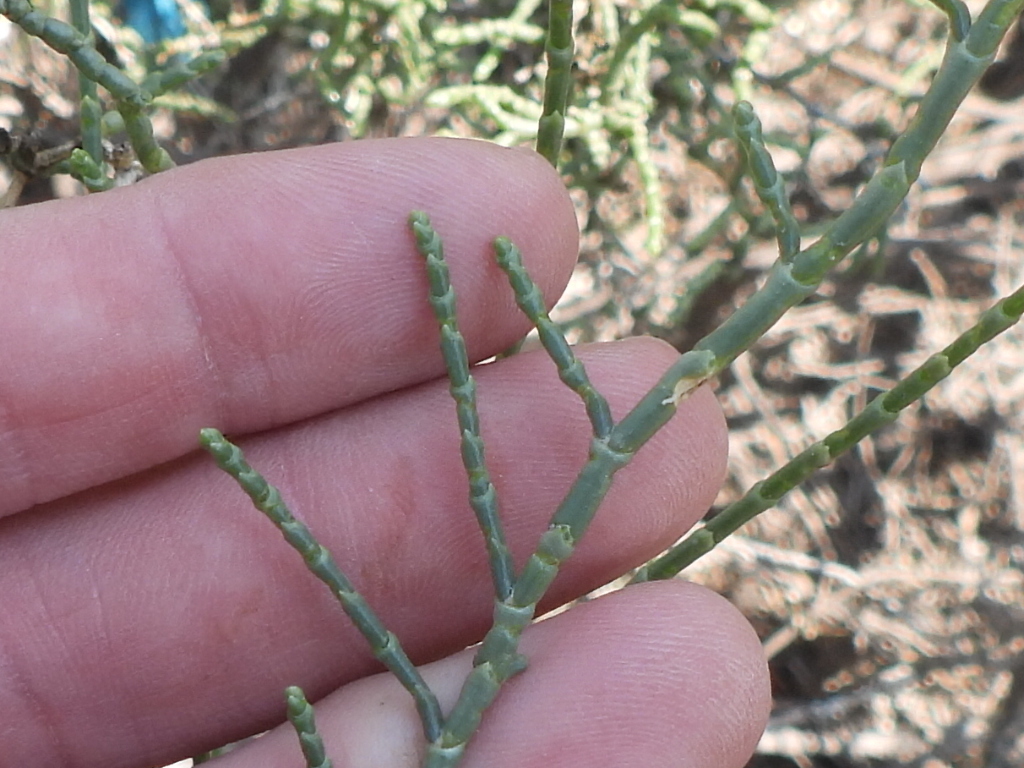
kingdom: Plantae
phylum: Tracheophyta
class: Magnoliopsida
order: Caryophyllales
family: Amaranthaceae
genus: Haloxylon
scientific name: Haloxylon salicornicum
